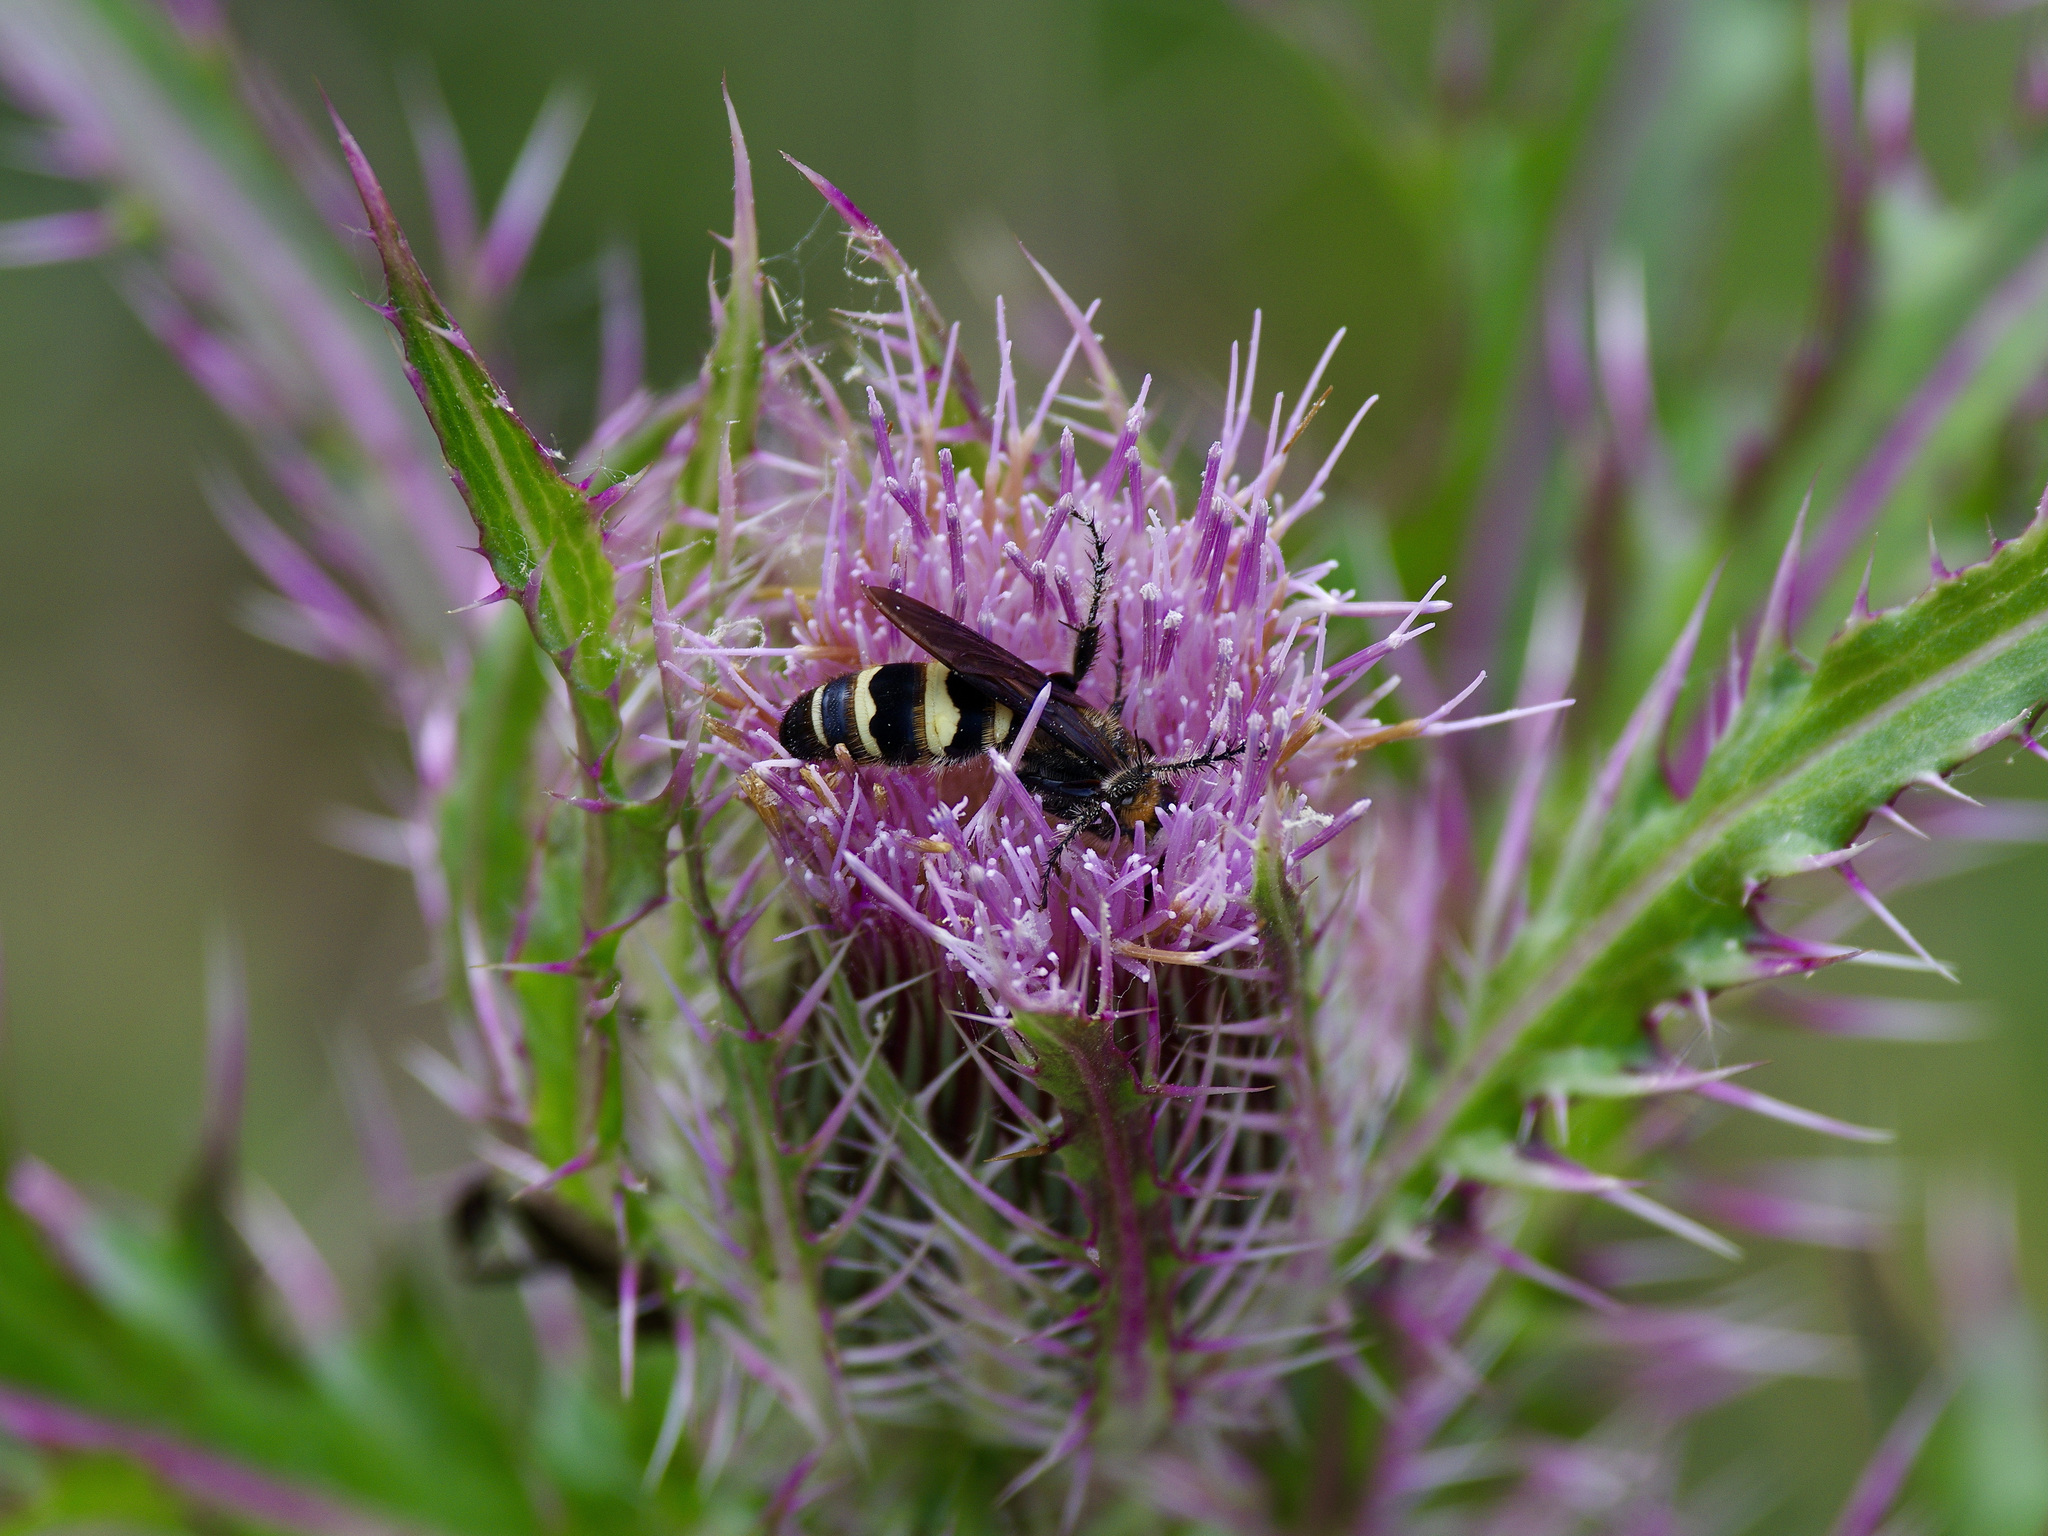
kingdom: Animalia
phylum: Arthropoda
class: Insecta
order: Hymenoptera
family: Scoliidae
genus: Dielis
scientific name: Dielis
